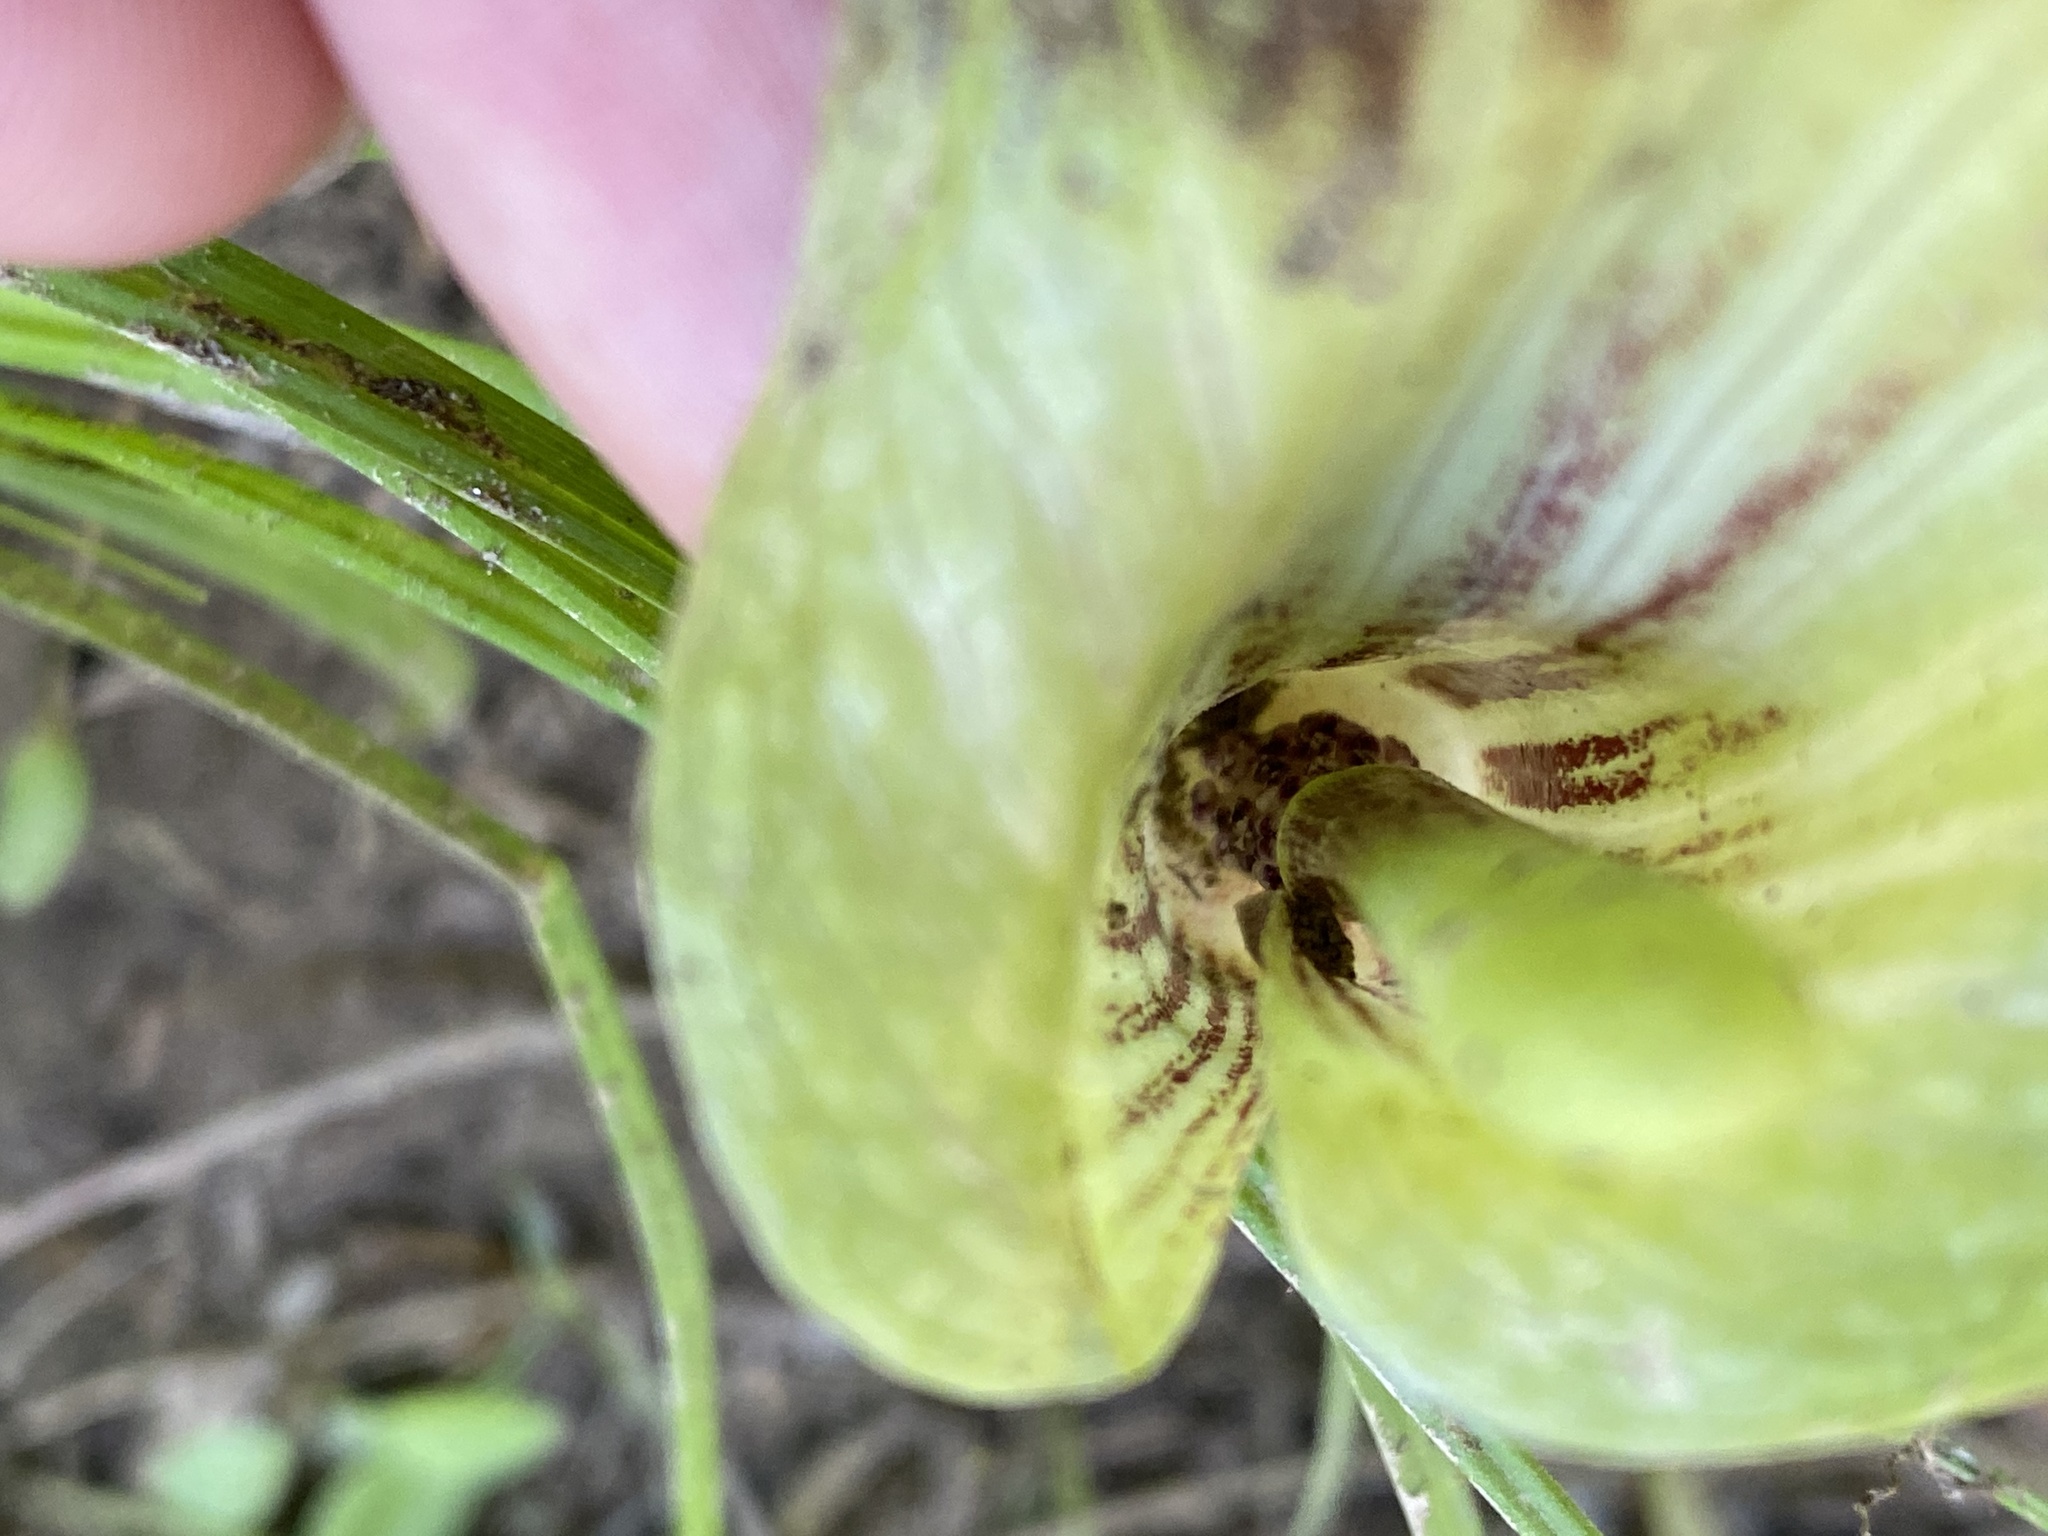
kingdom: Plantae
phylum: Tracheophyta
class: Liliopsida
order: Alismatales
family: Araceae
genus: Arisaema
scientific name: Arisaema triphyllum
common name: Jack-in-the-pulpit
